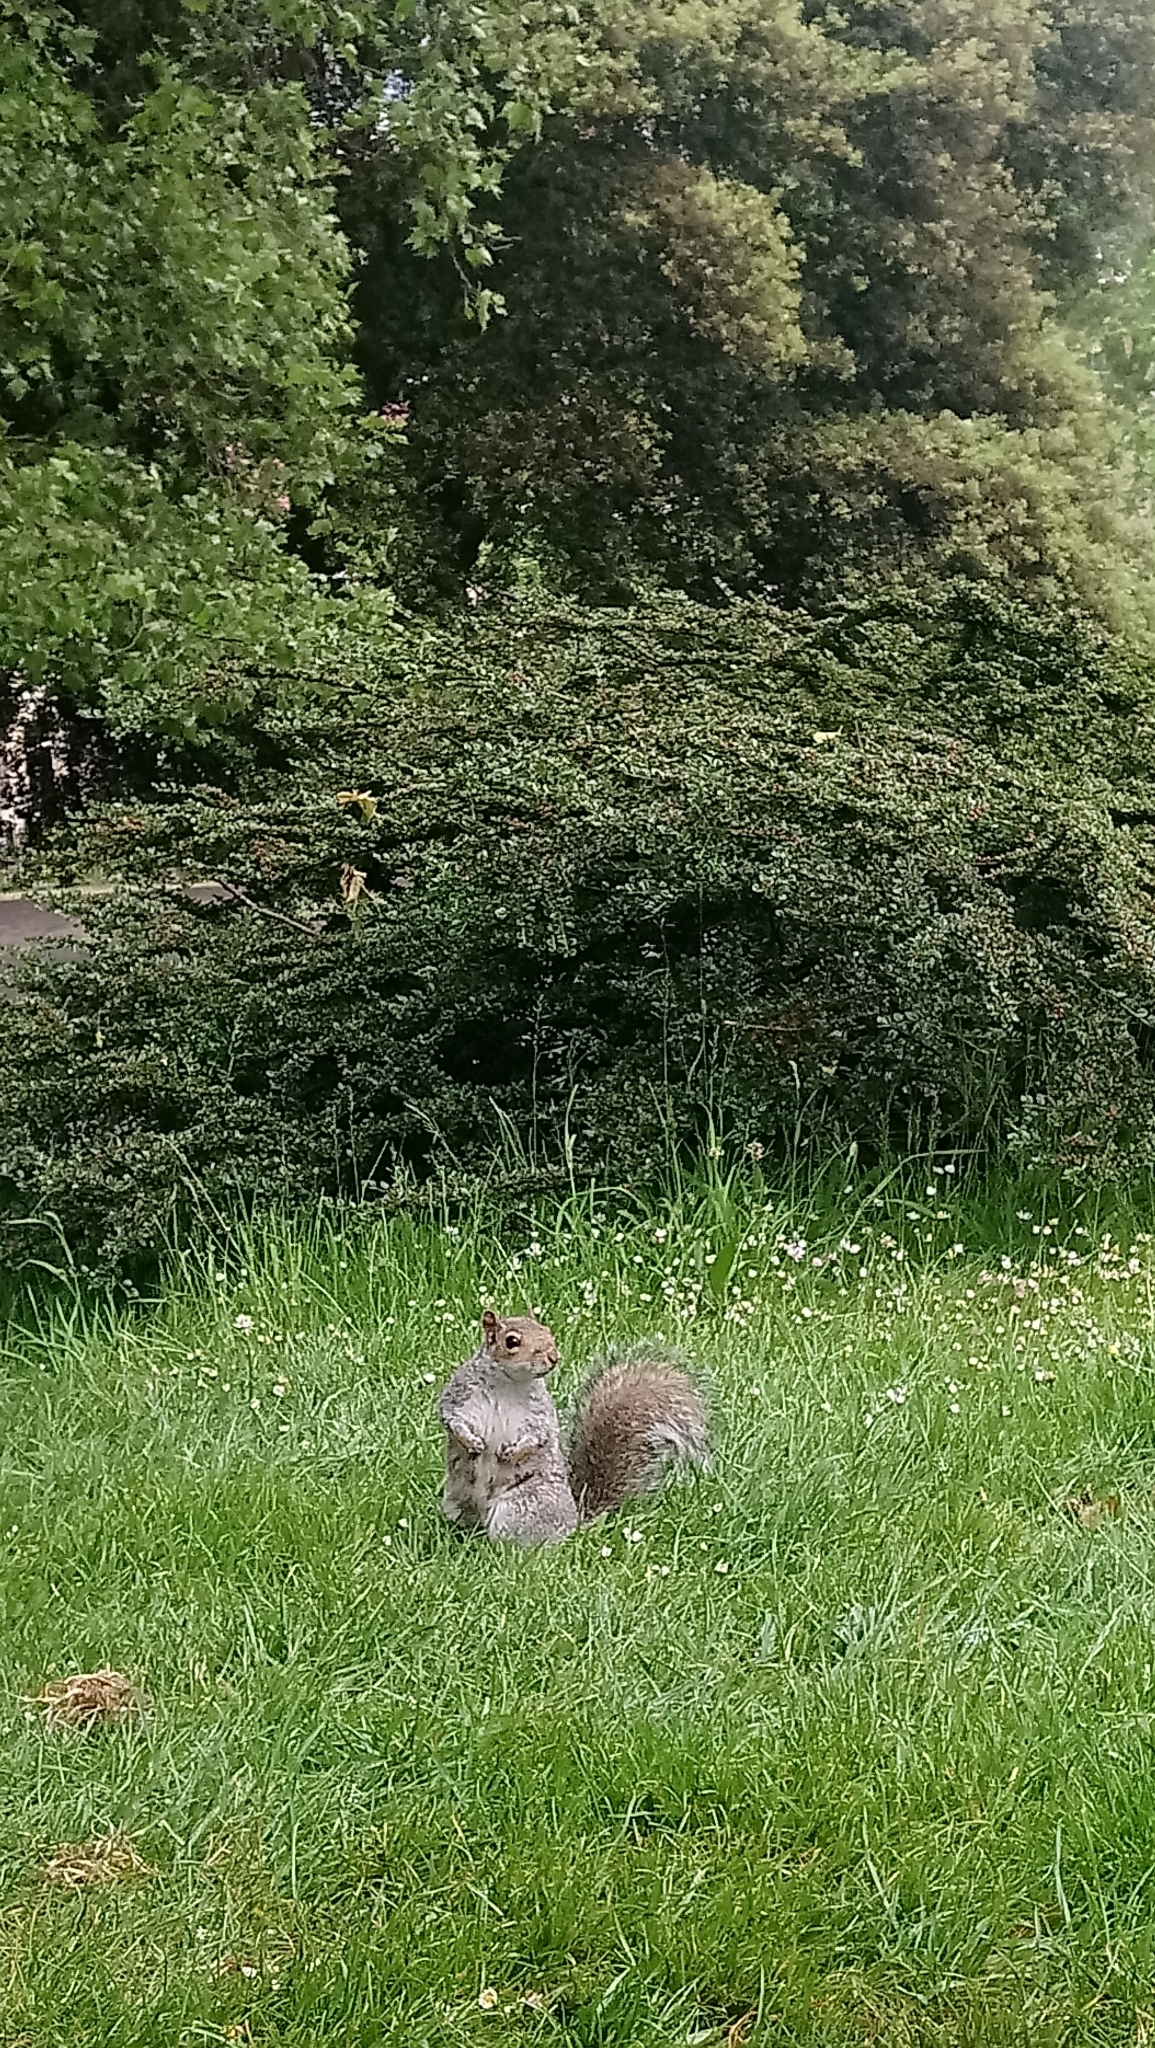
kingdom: Animalia
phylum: Chordata
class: Mammalia
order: Rodentia
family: Sciuridae
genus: Sciurus
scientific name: Sciurus carolinensis
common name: Eastern gray squirrel
